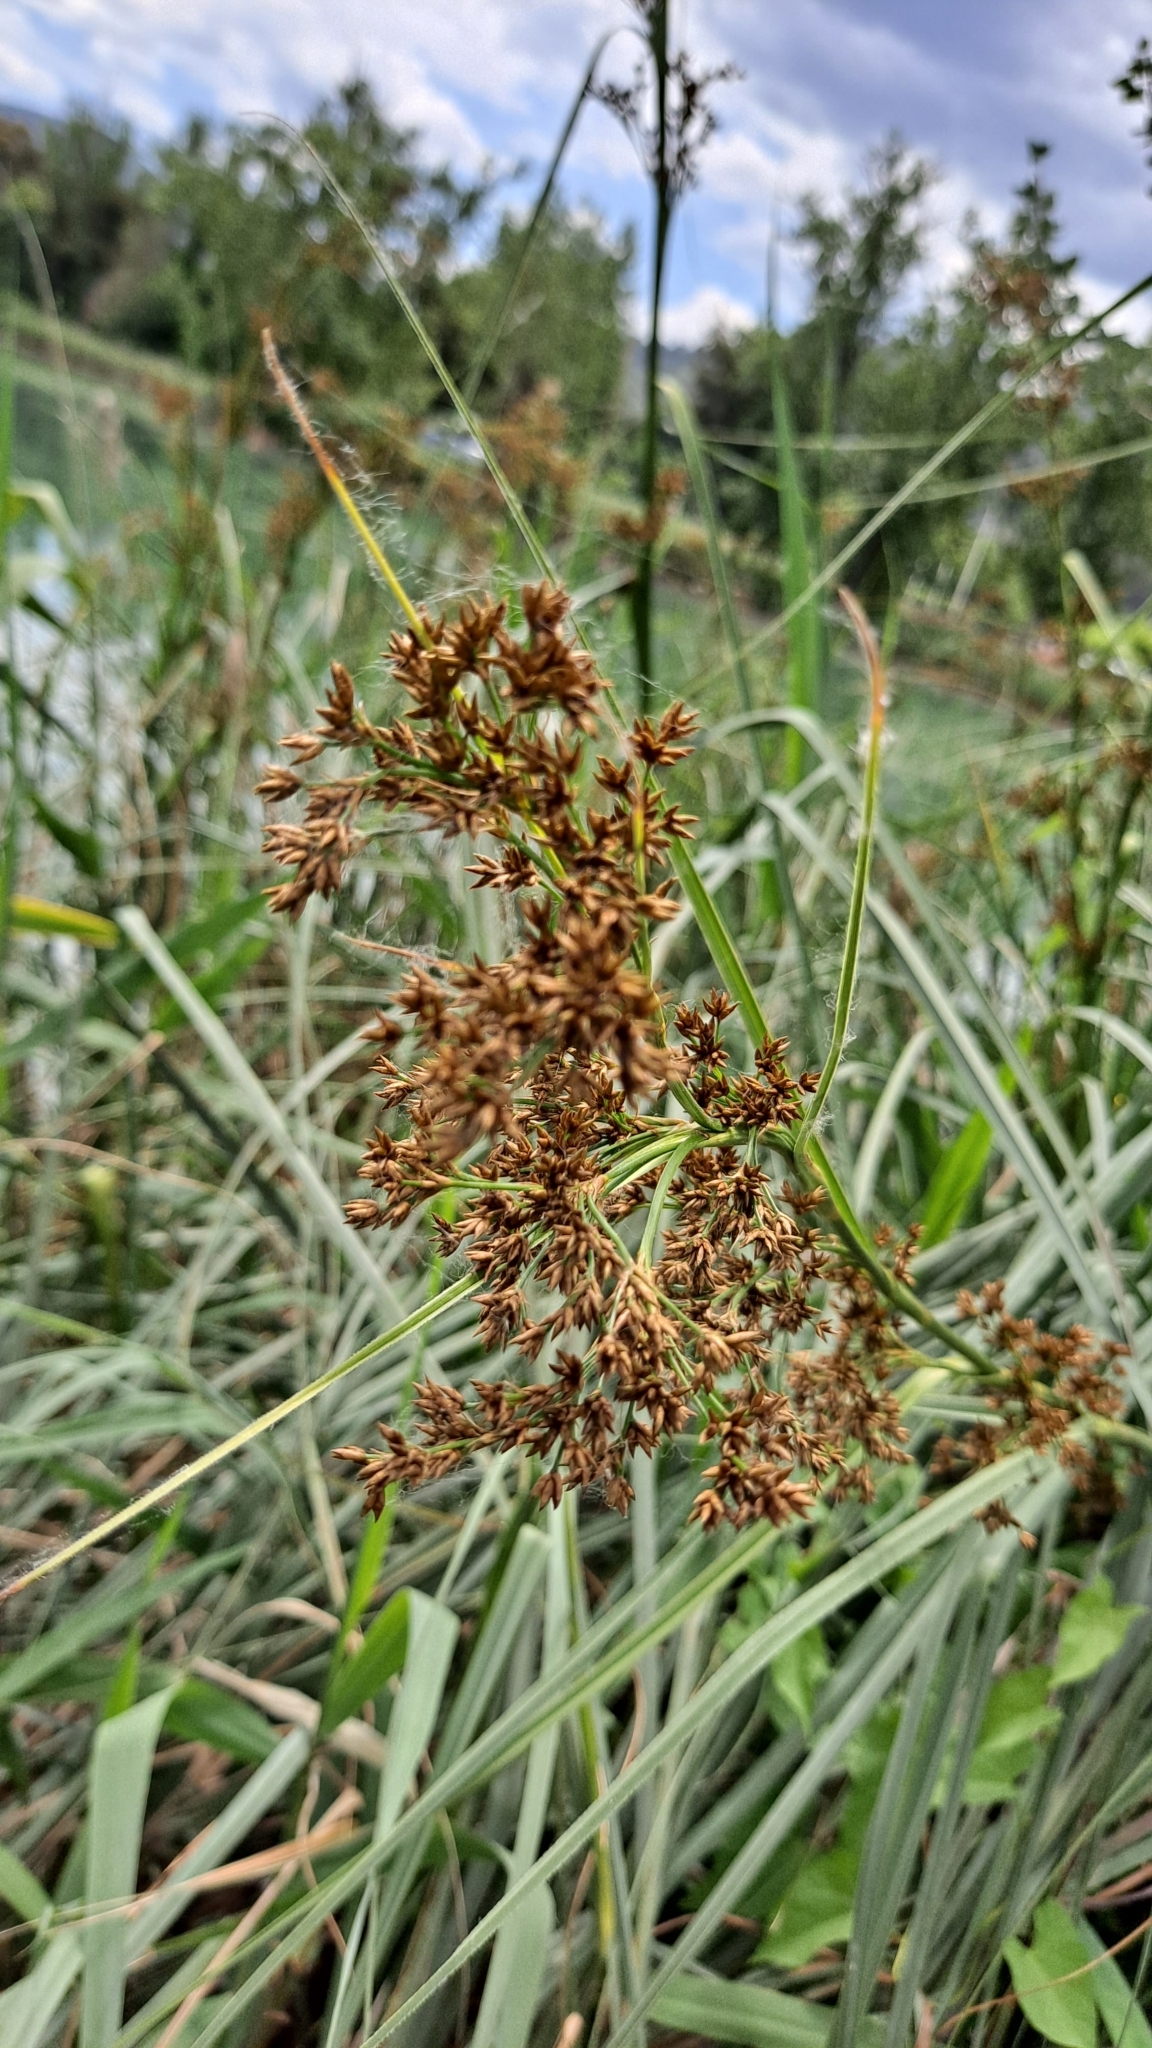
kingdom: Plantae
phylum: Tracheophyta
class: Liliopsida
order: Poales
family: Cyperaceae
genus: Cladium
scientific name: Cladium mariscus
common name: Great fen-sedge
